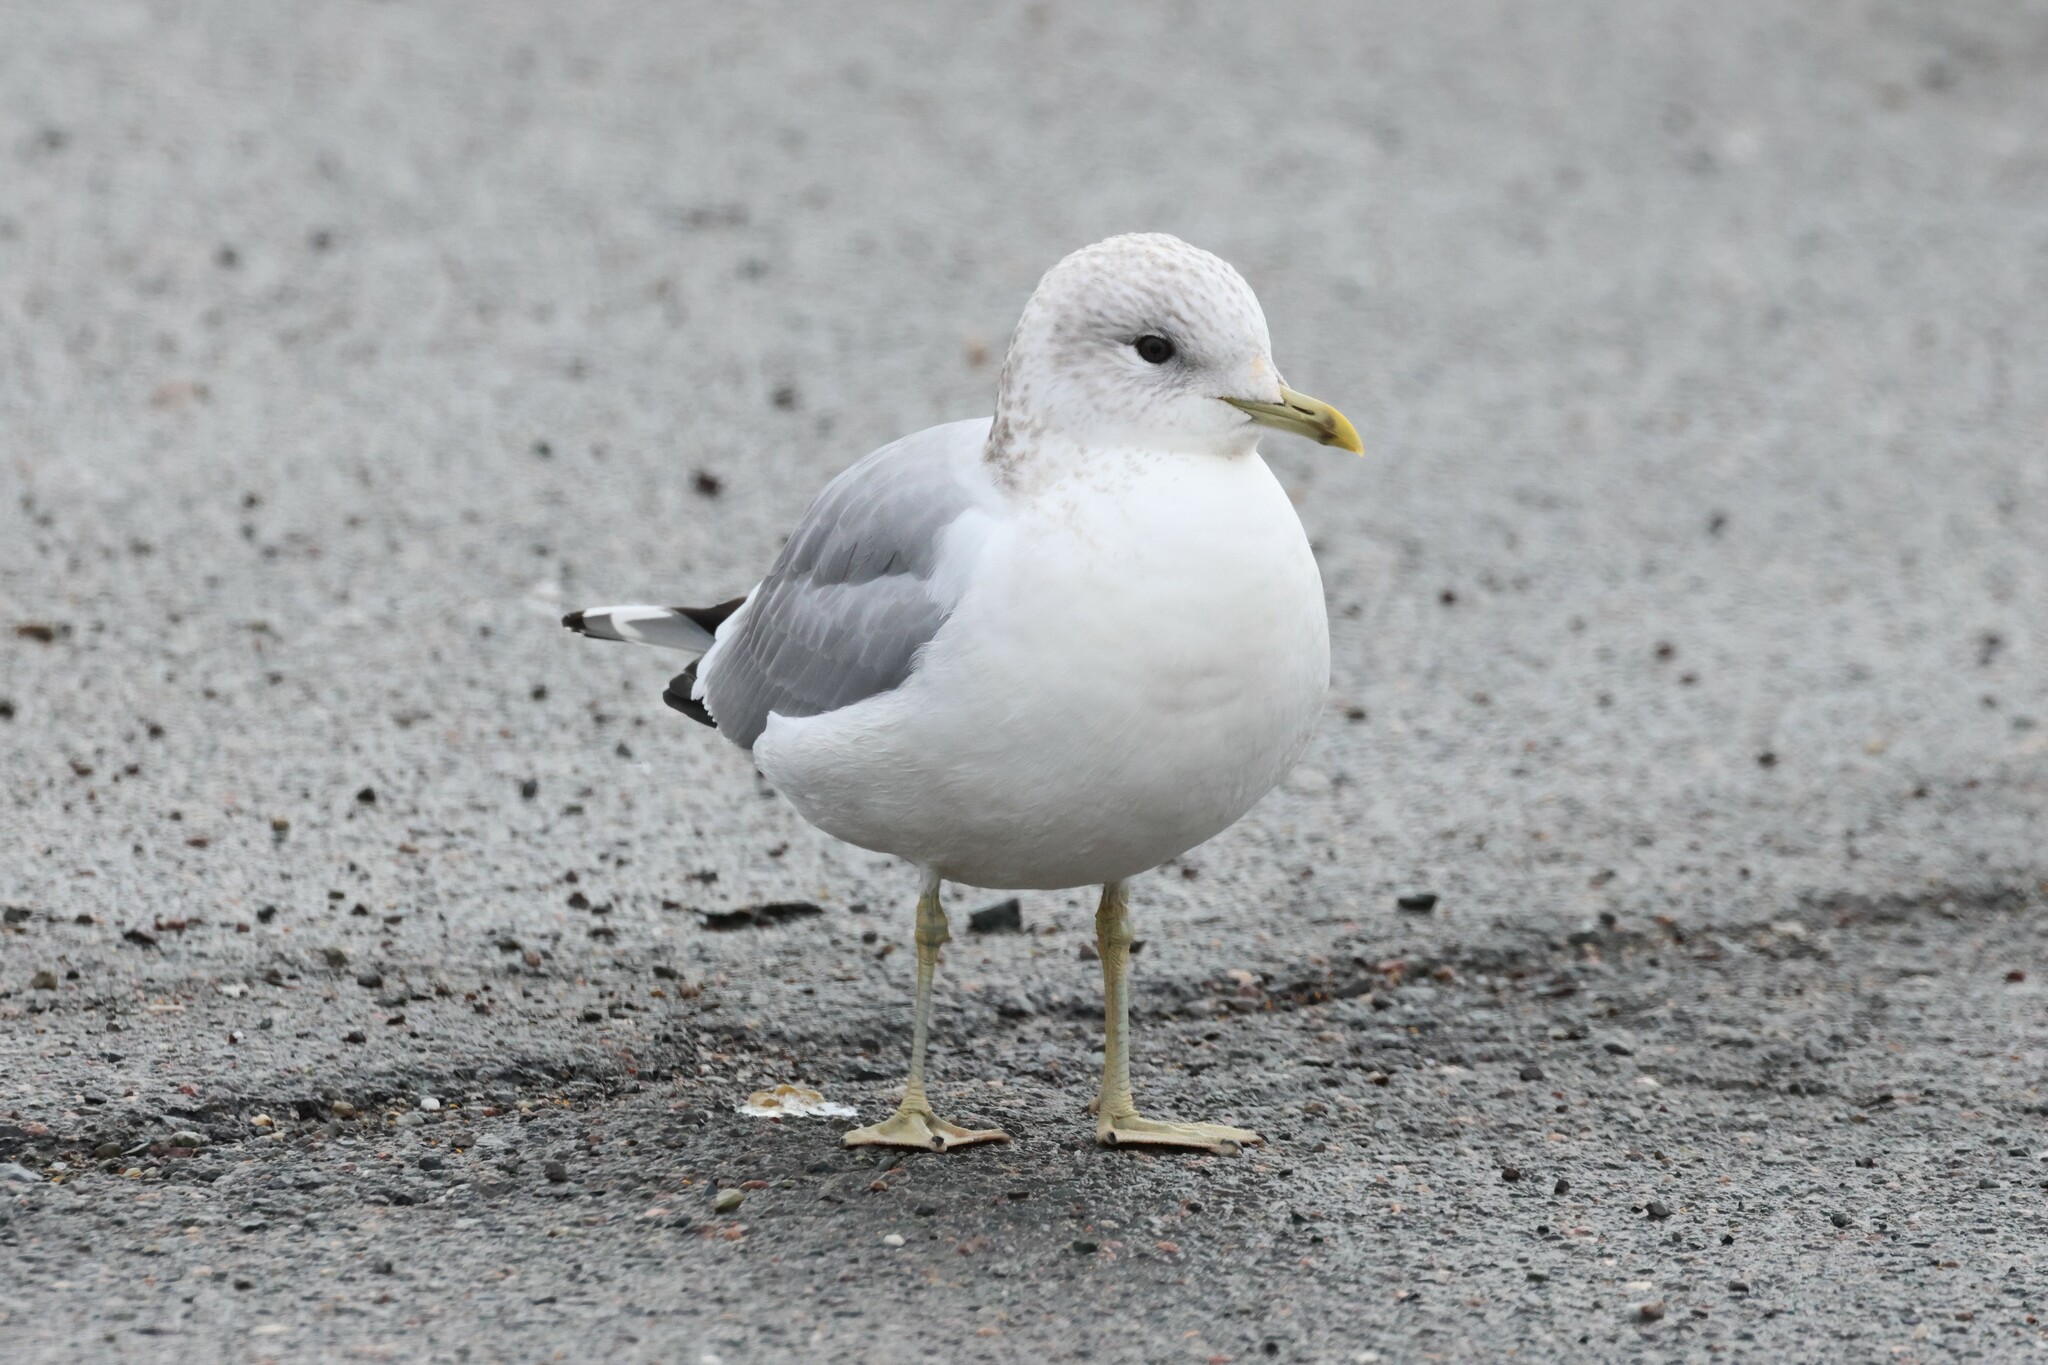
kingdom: Animalia
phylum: Chordata
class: Aves
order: Charadriiformes
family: Laridae
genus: Larus
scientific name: Larus canus
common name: Mew gull
